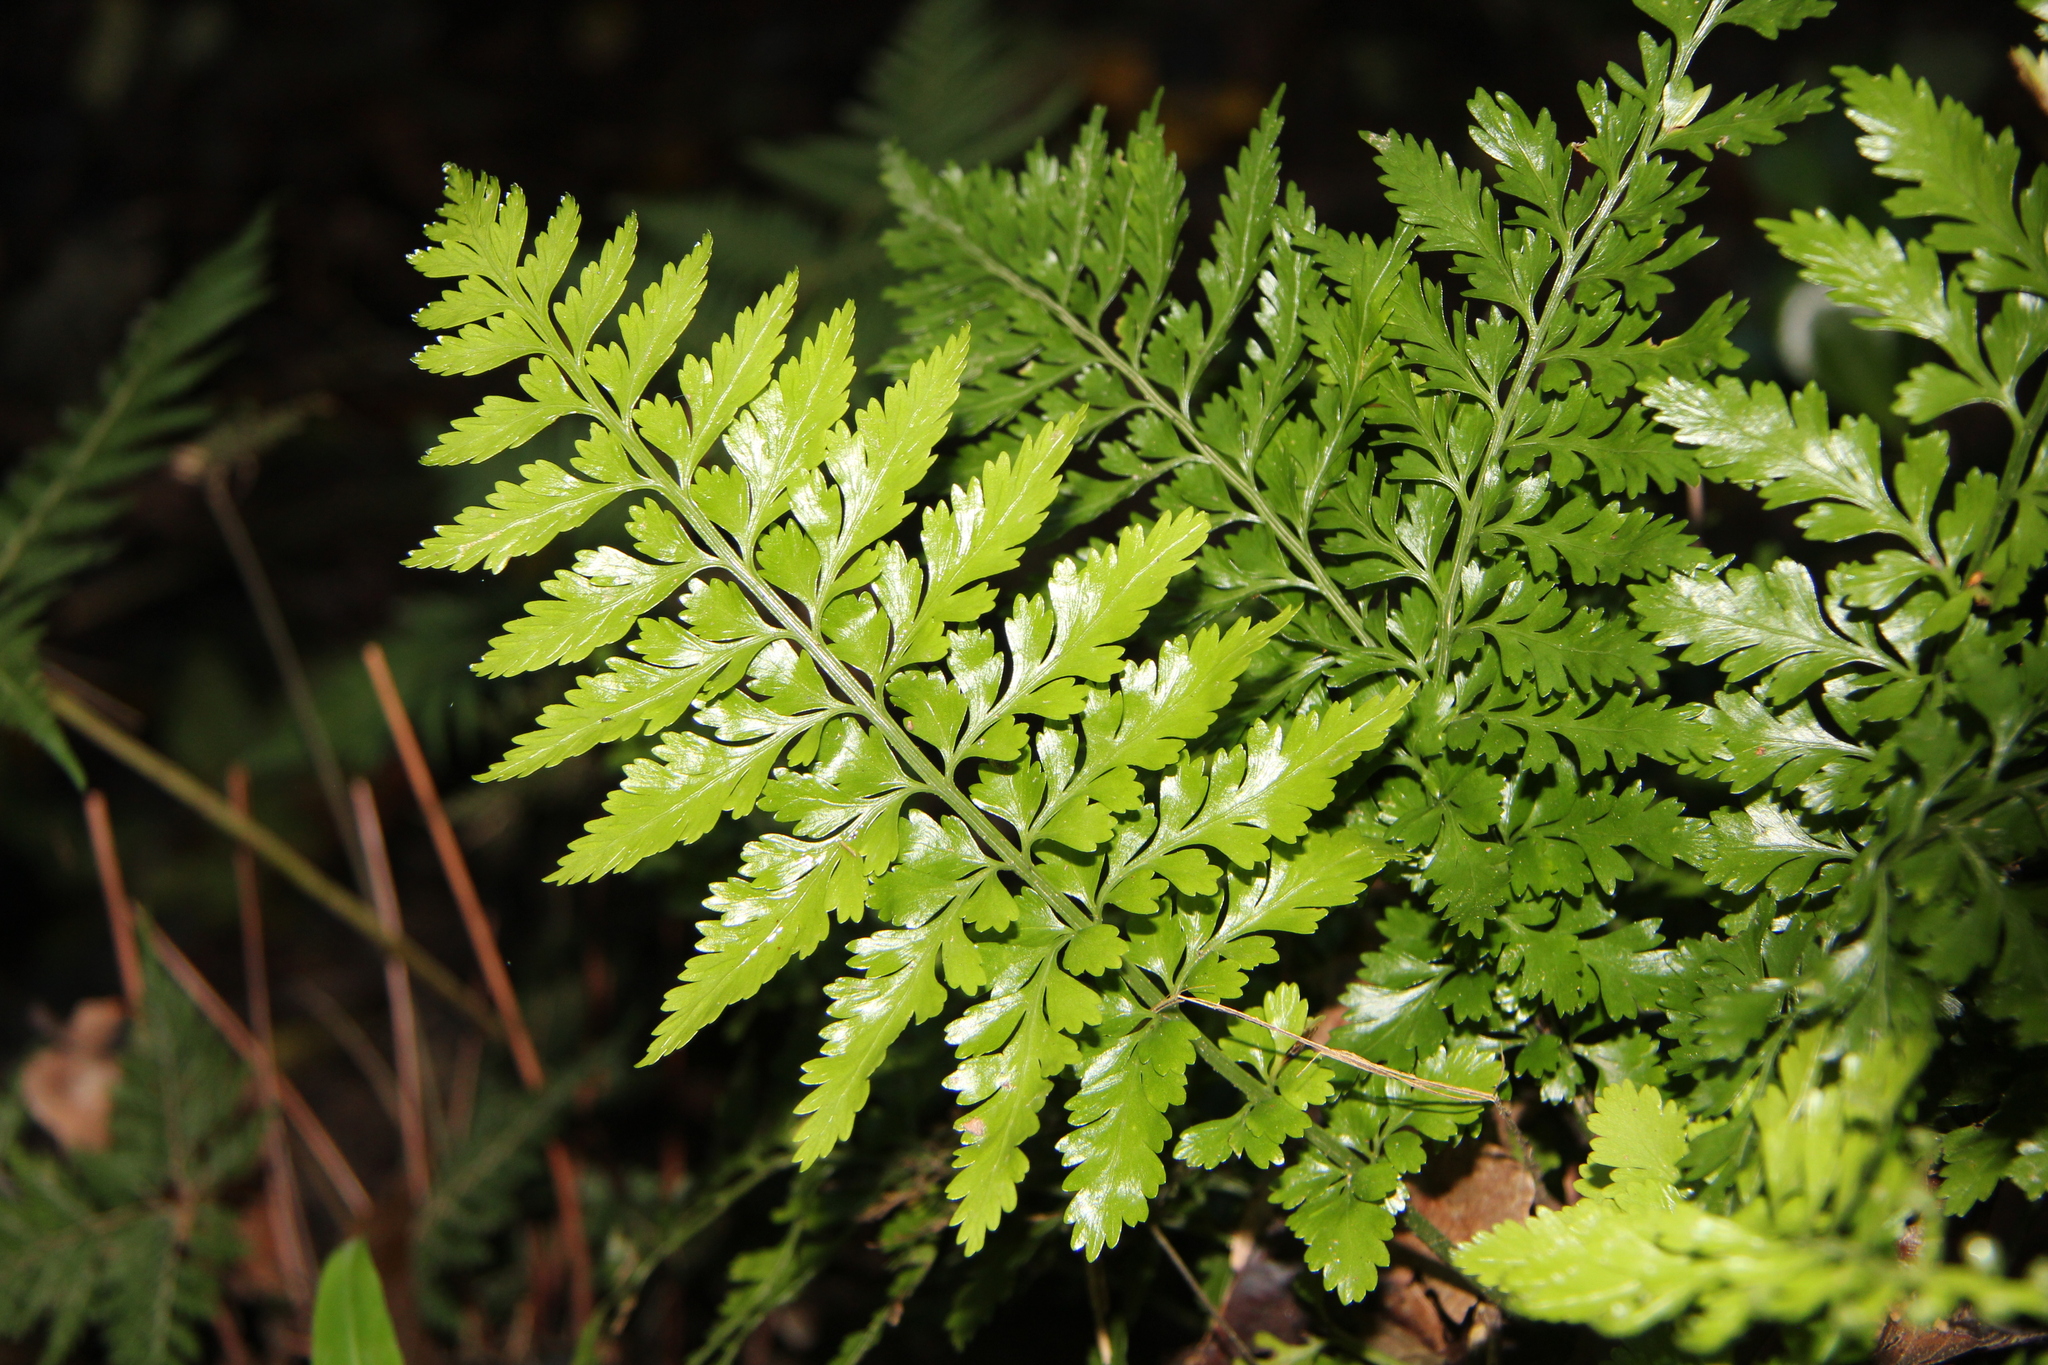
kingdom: Plantae
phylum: Tracheophyta
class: Polypodiopsida
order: Polypodiales
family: Aspleniaceae
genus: Asplenium
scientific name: Asplenium lamprophyllum
